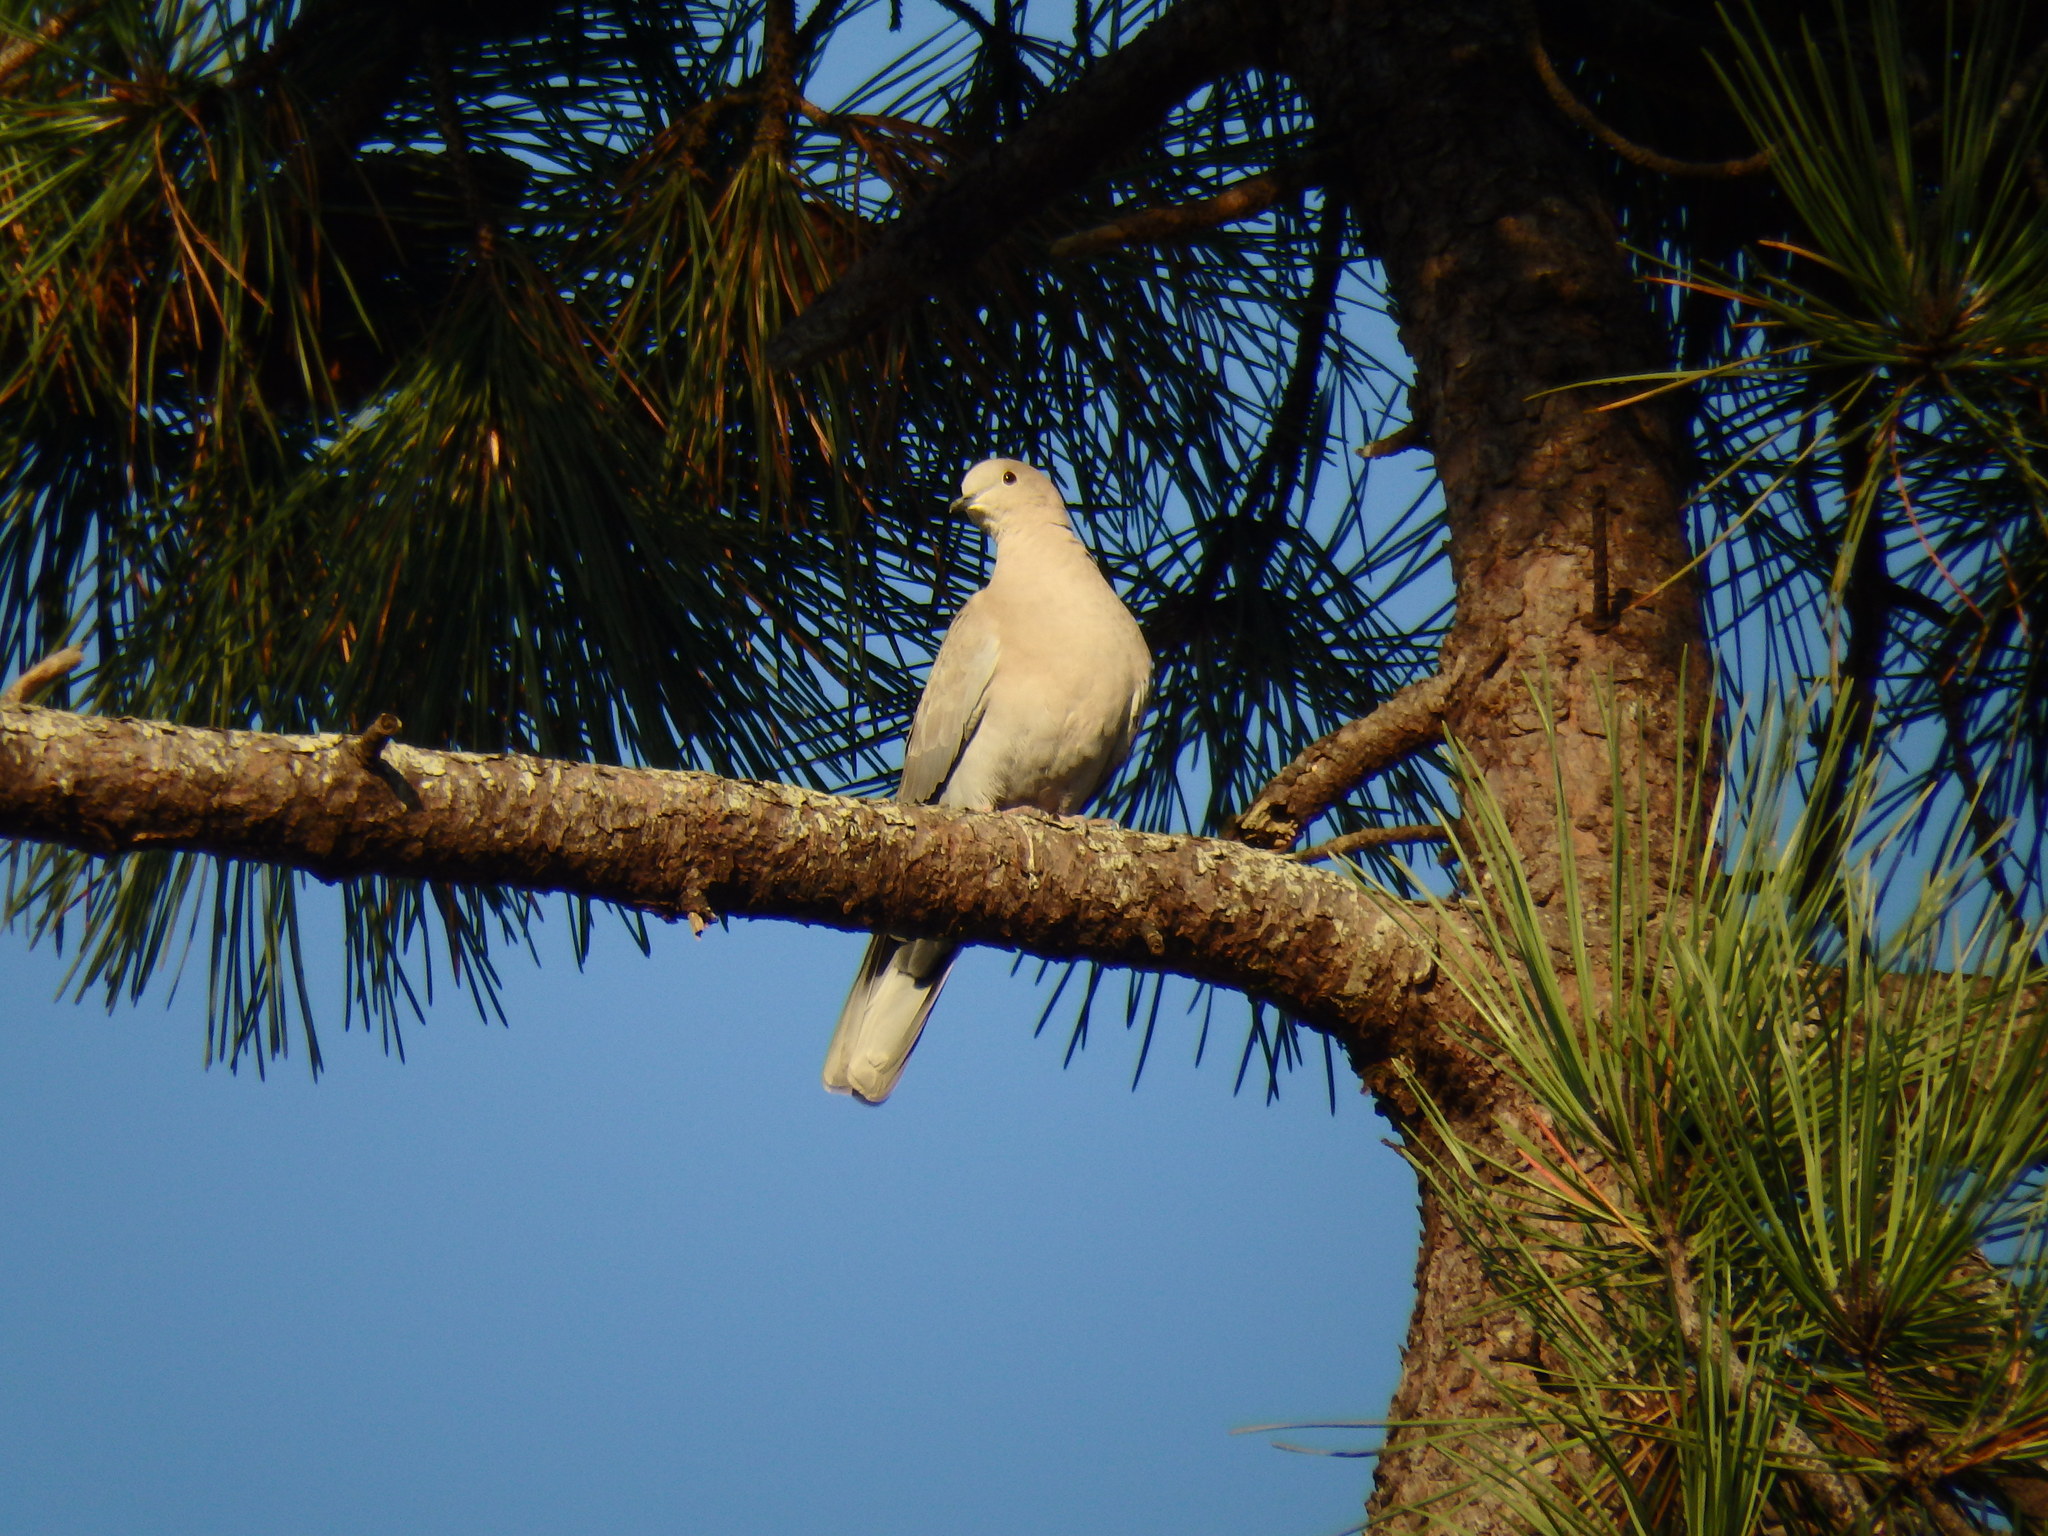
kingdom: Animalia
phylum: Chordata
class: Aves
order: Columbiformes
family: Columbidae
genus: Streptopelia
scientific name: Streptopelia decaocto
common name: Eurasian collared dove
